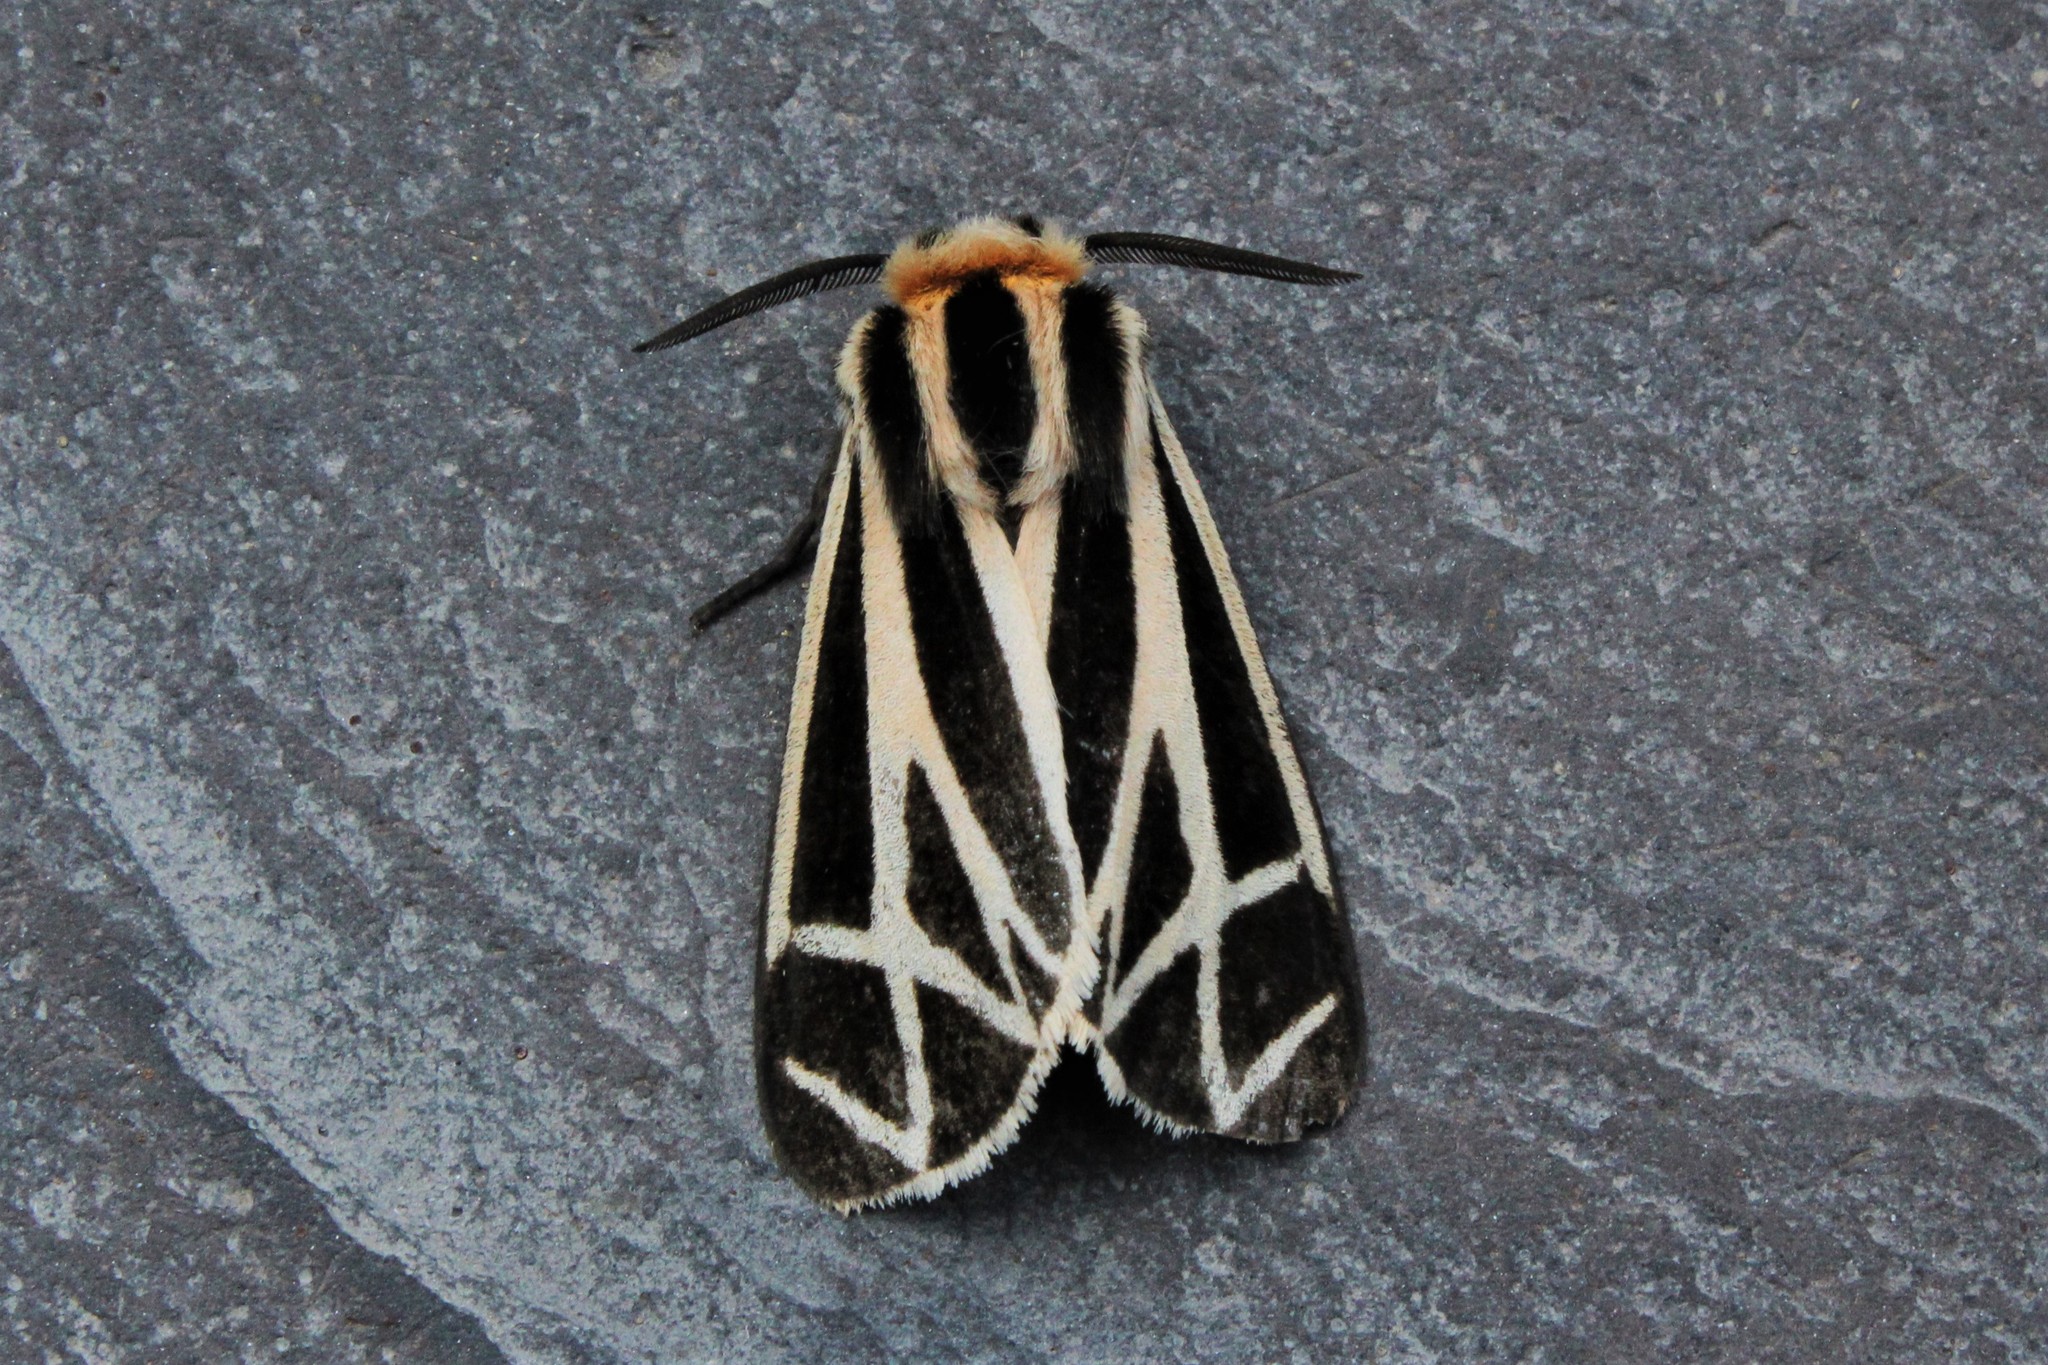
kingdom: Animalia
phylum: Arthropoda
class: Insecta
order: Lepidoptera
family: Erebidae
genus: Apantesis
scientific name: Apantesis phalerata
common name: Harnessed tiger moth
